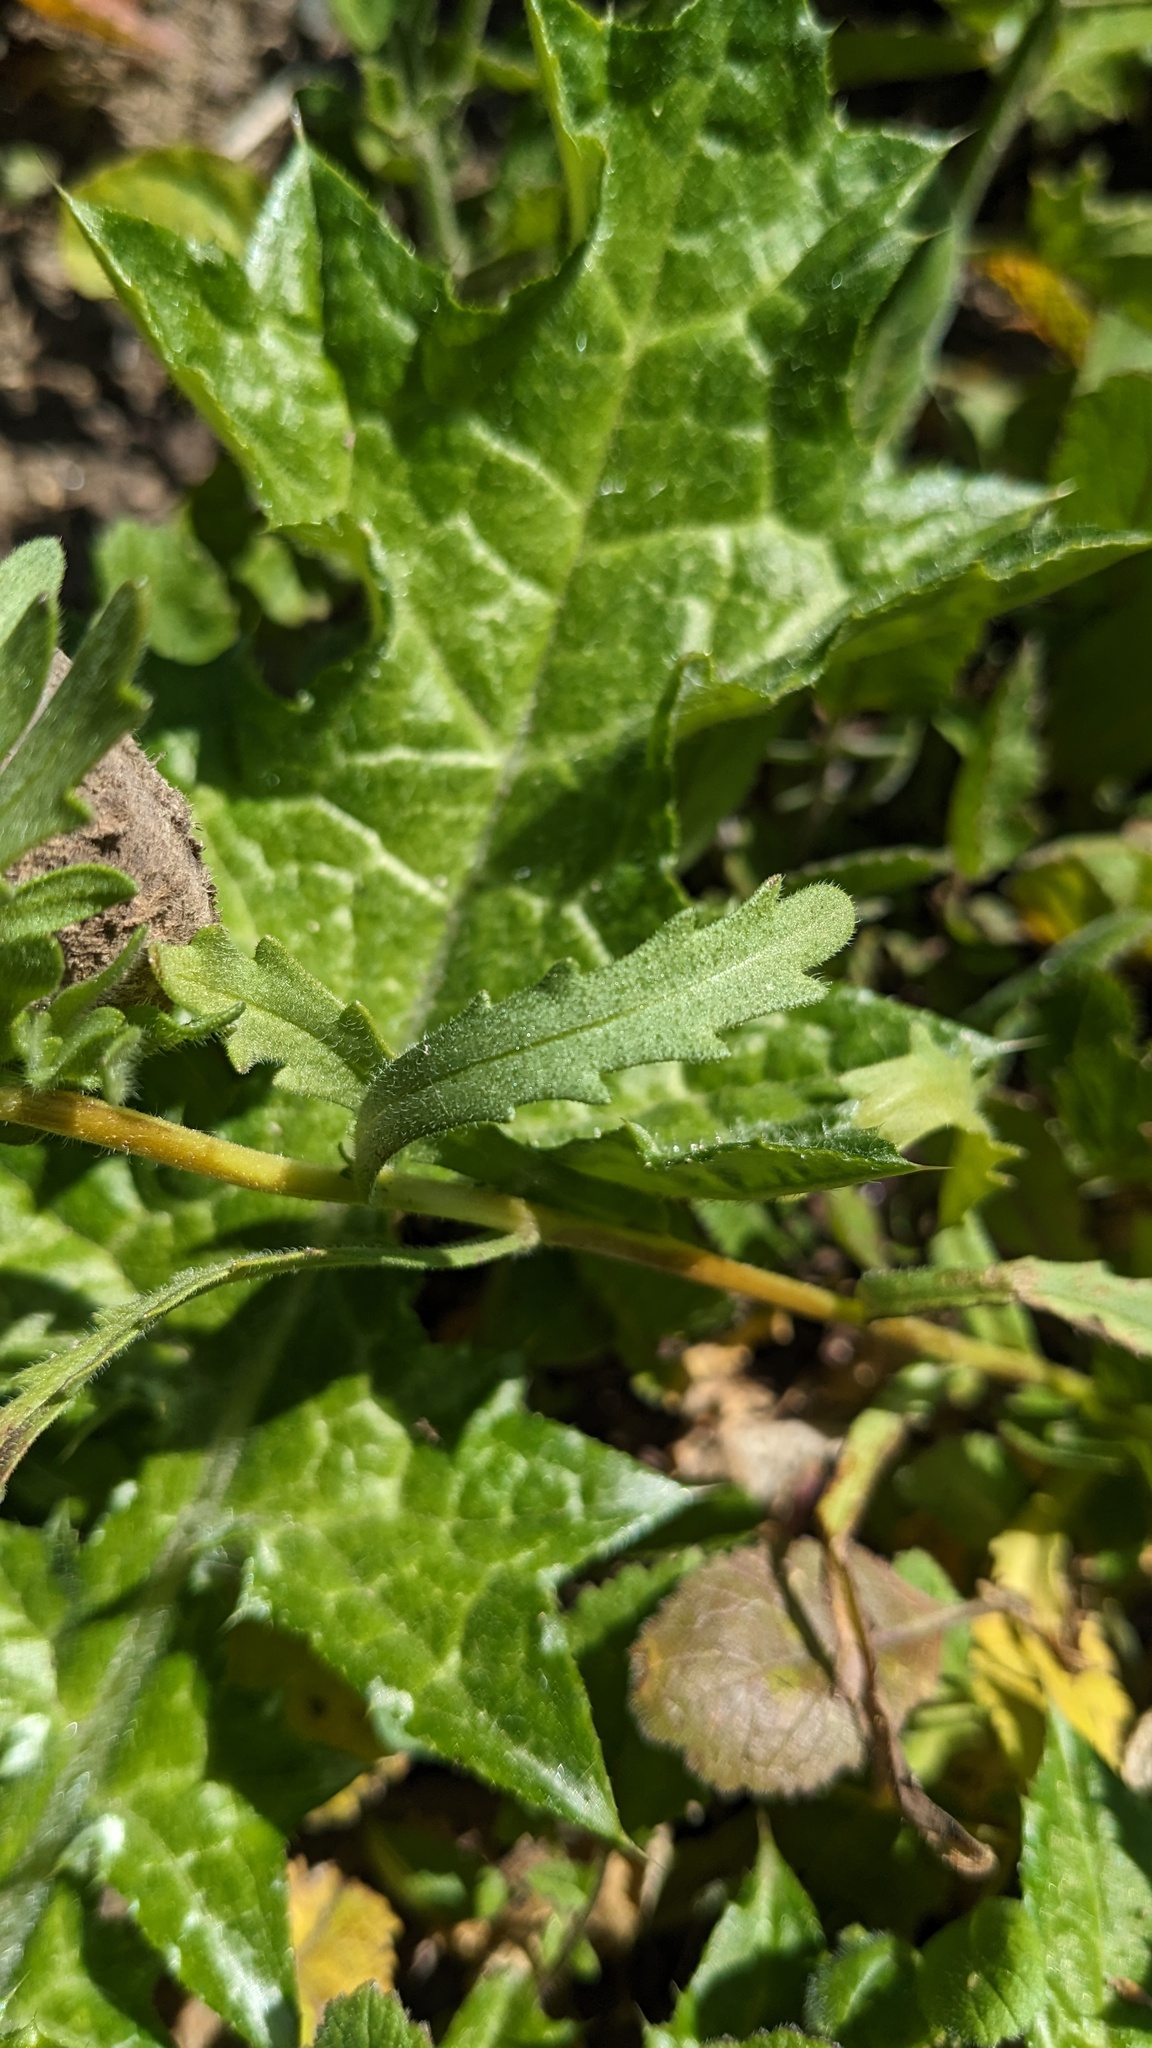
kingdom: Plantae
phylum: Tracheophyta
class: Magnoliopsida
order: Asterales
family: Asteraceae
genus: Layia
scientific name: Layia platyglossa
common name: Tidy-tips
